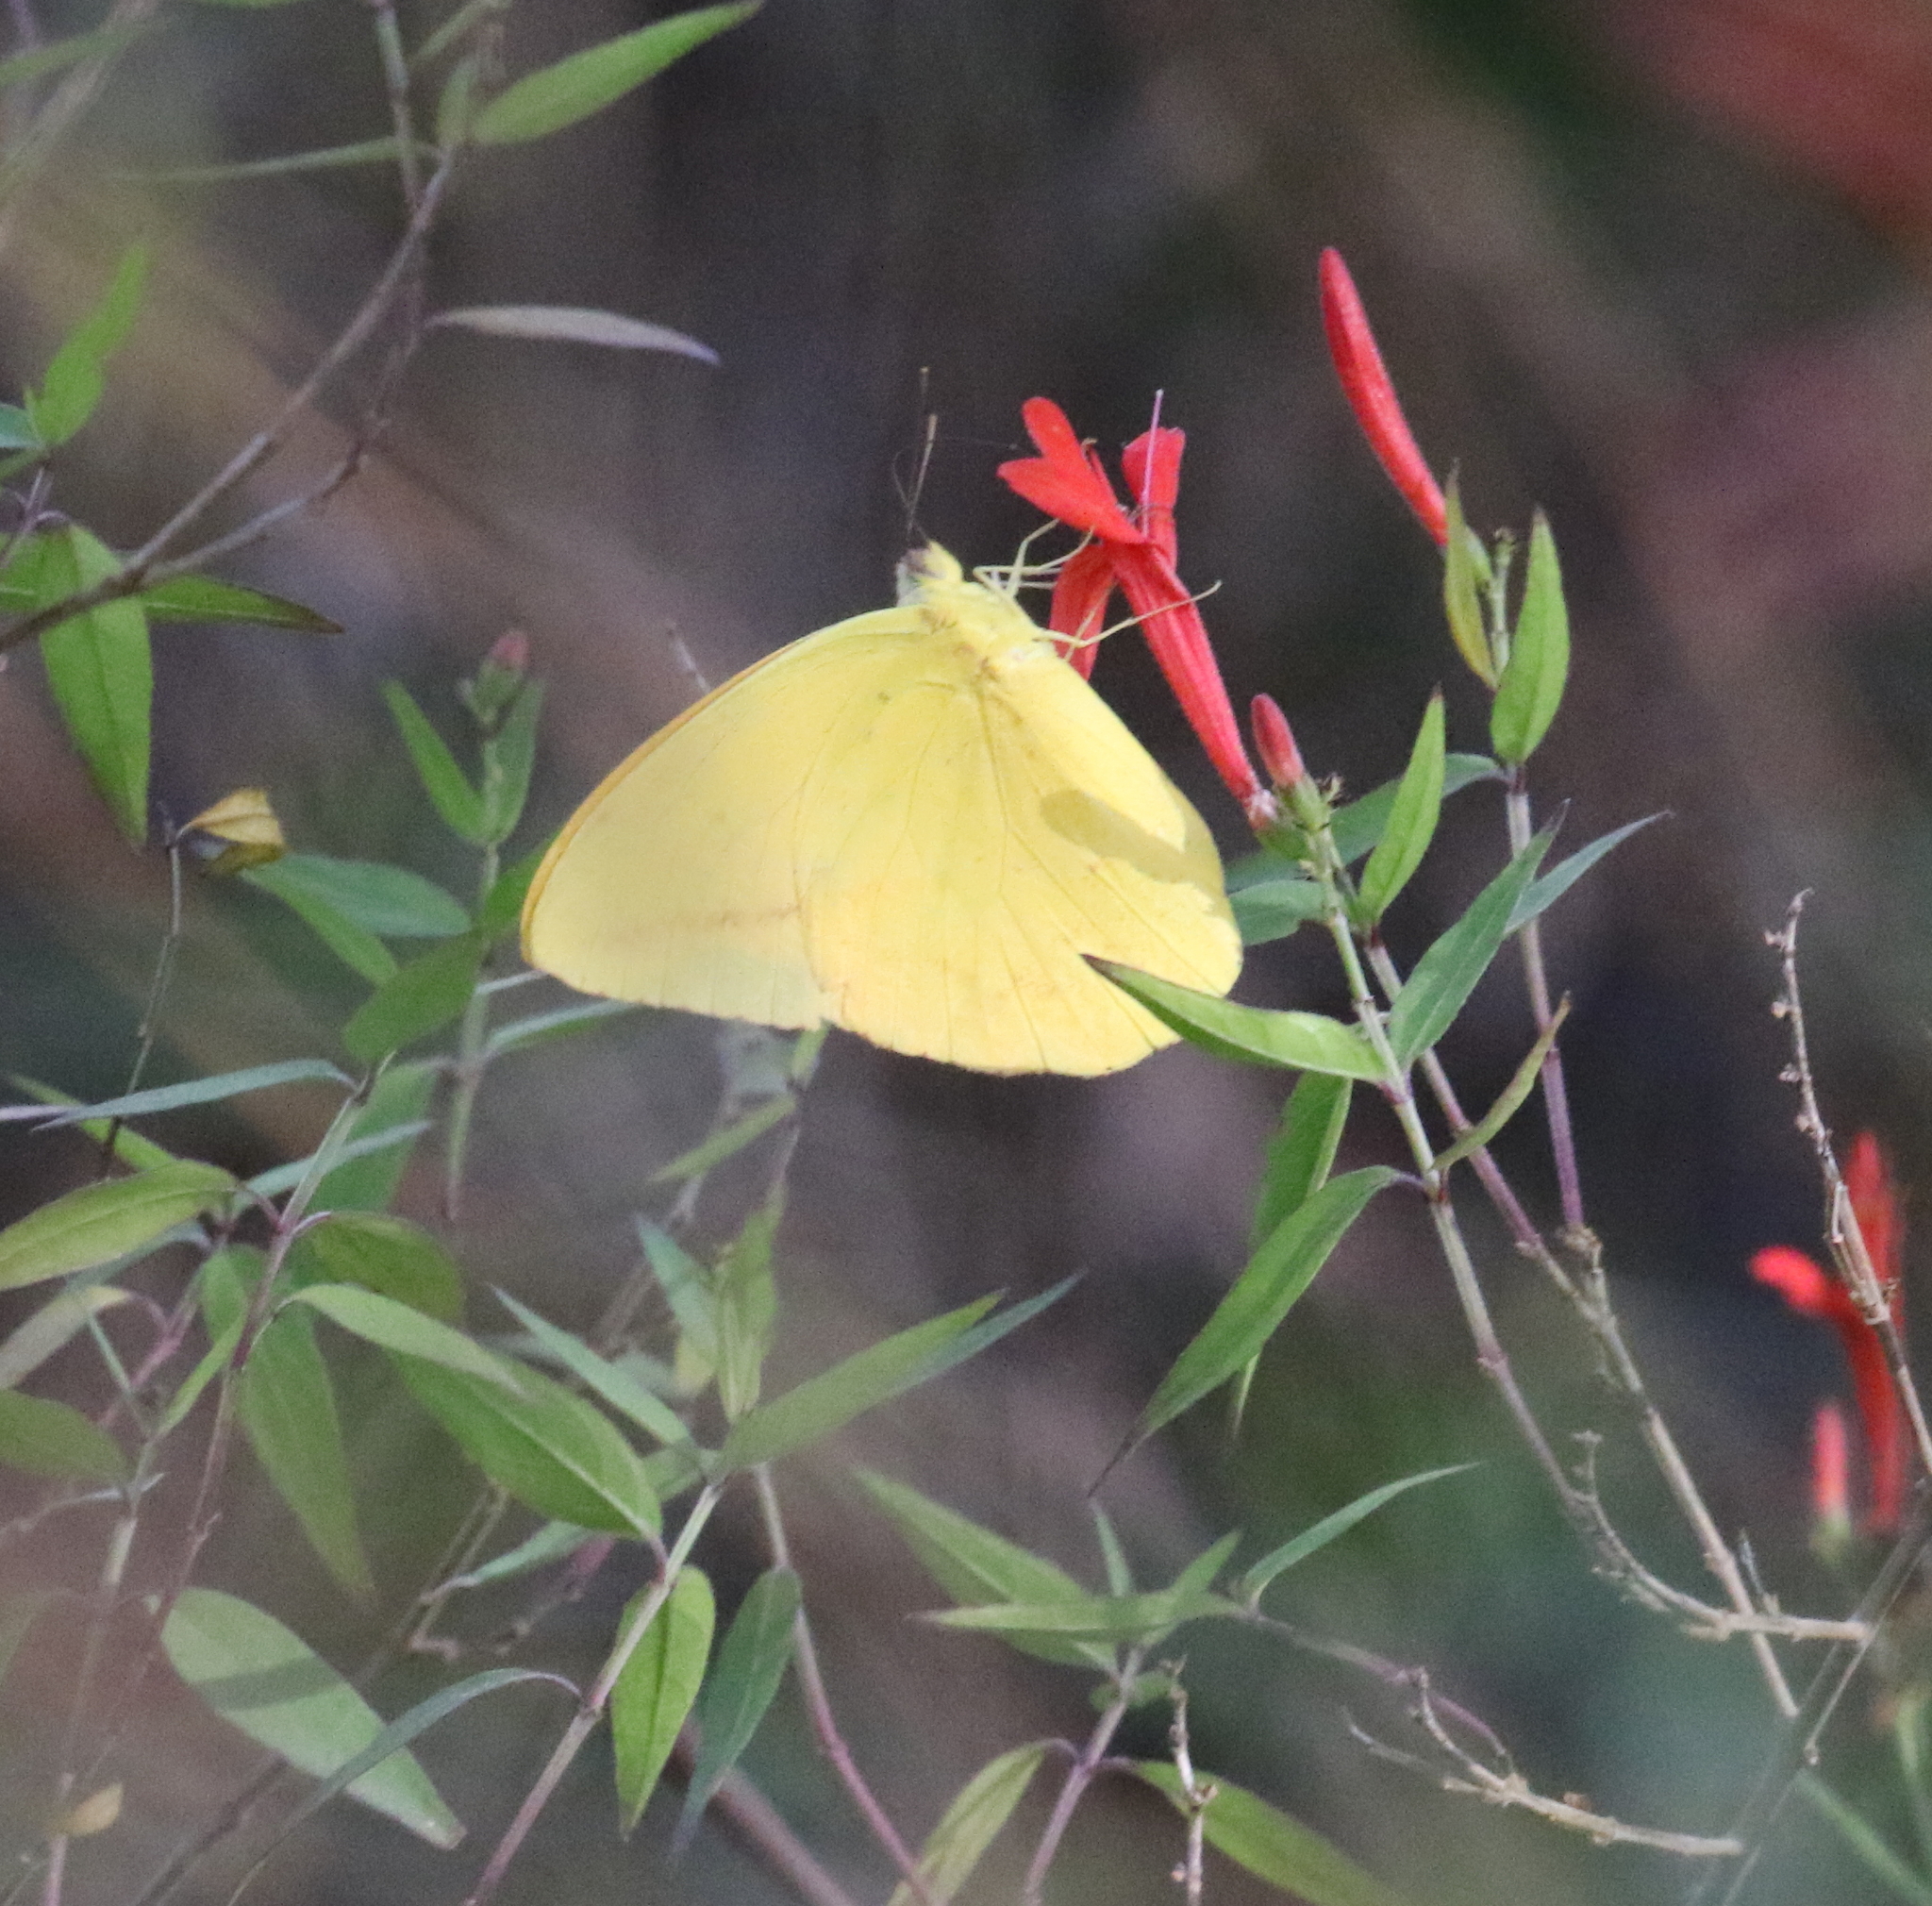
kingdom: Animalia
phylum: Arthropoda
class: Insecta
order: Lepidoptera
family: Pieridae
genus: Phoebis
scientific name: Phoebis agarithe
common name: Large orange sulphur
